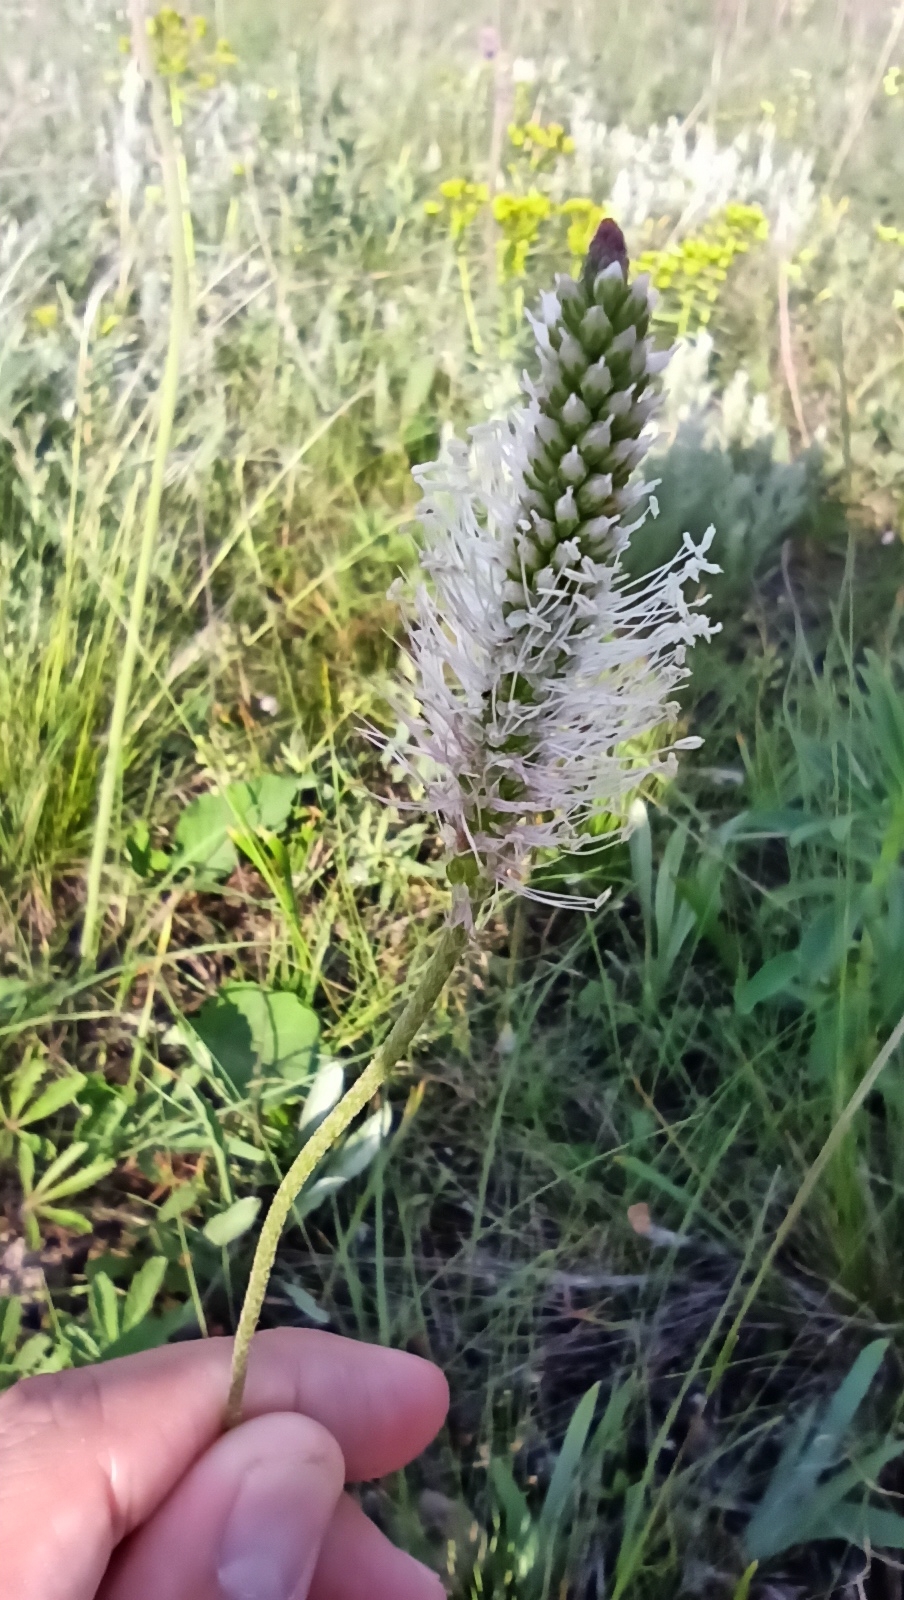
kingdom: Plantae
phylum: Tracheophyta
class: Magnoliopsida
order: Lamiales
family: Plantaginaceae
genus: Plantago
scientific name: Plantago media
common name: Hoary plantain
